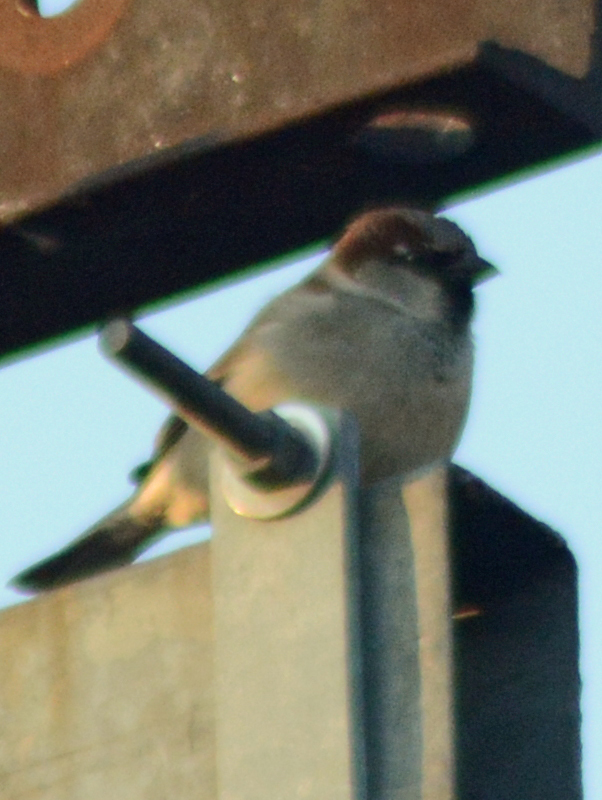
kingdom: Animalia
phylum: Chordata
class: Aves
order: Passeriformes
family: Passeridae
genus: Passer
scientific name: Passer domesticus
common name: House sparrow
